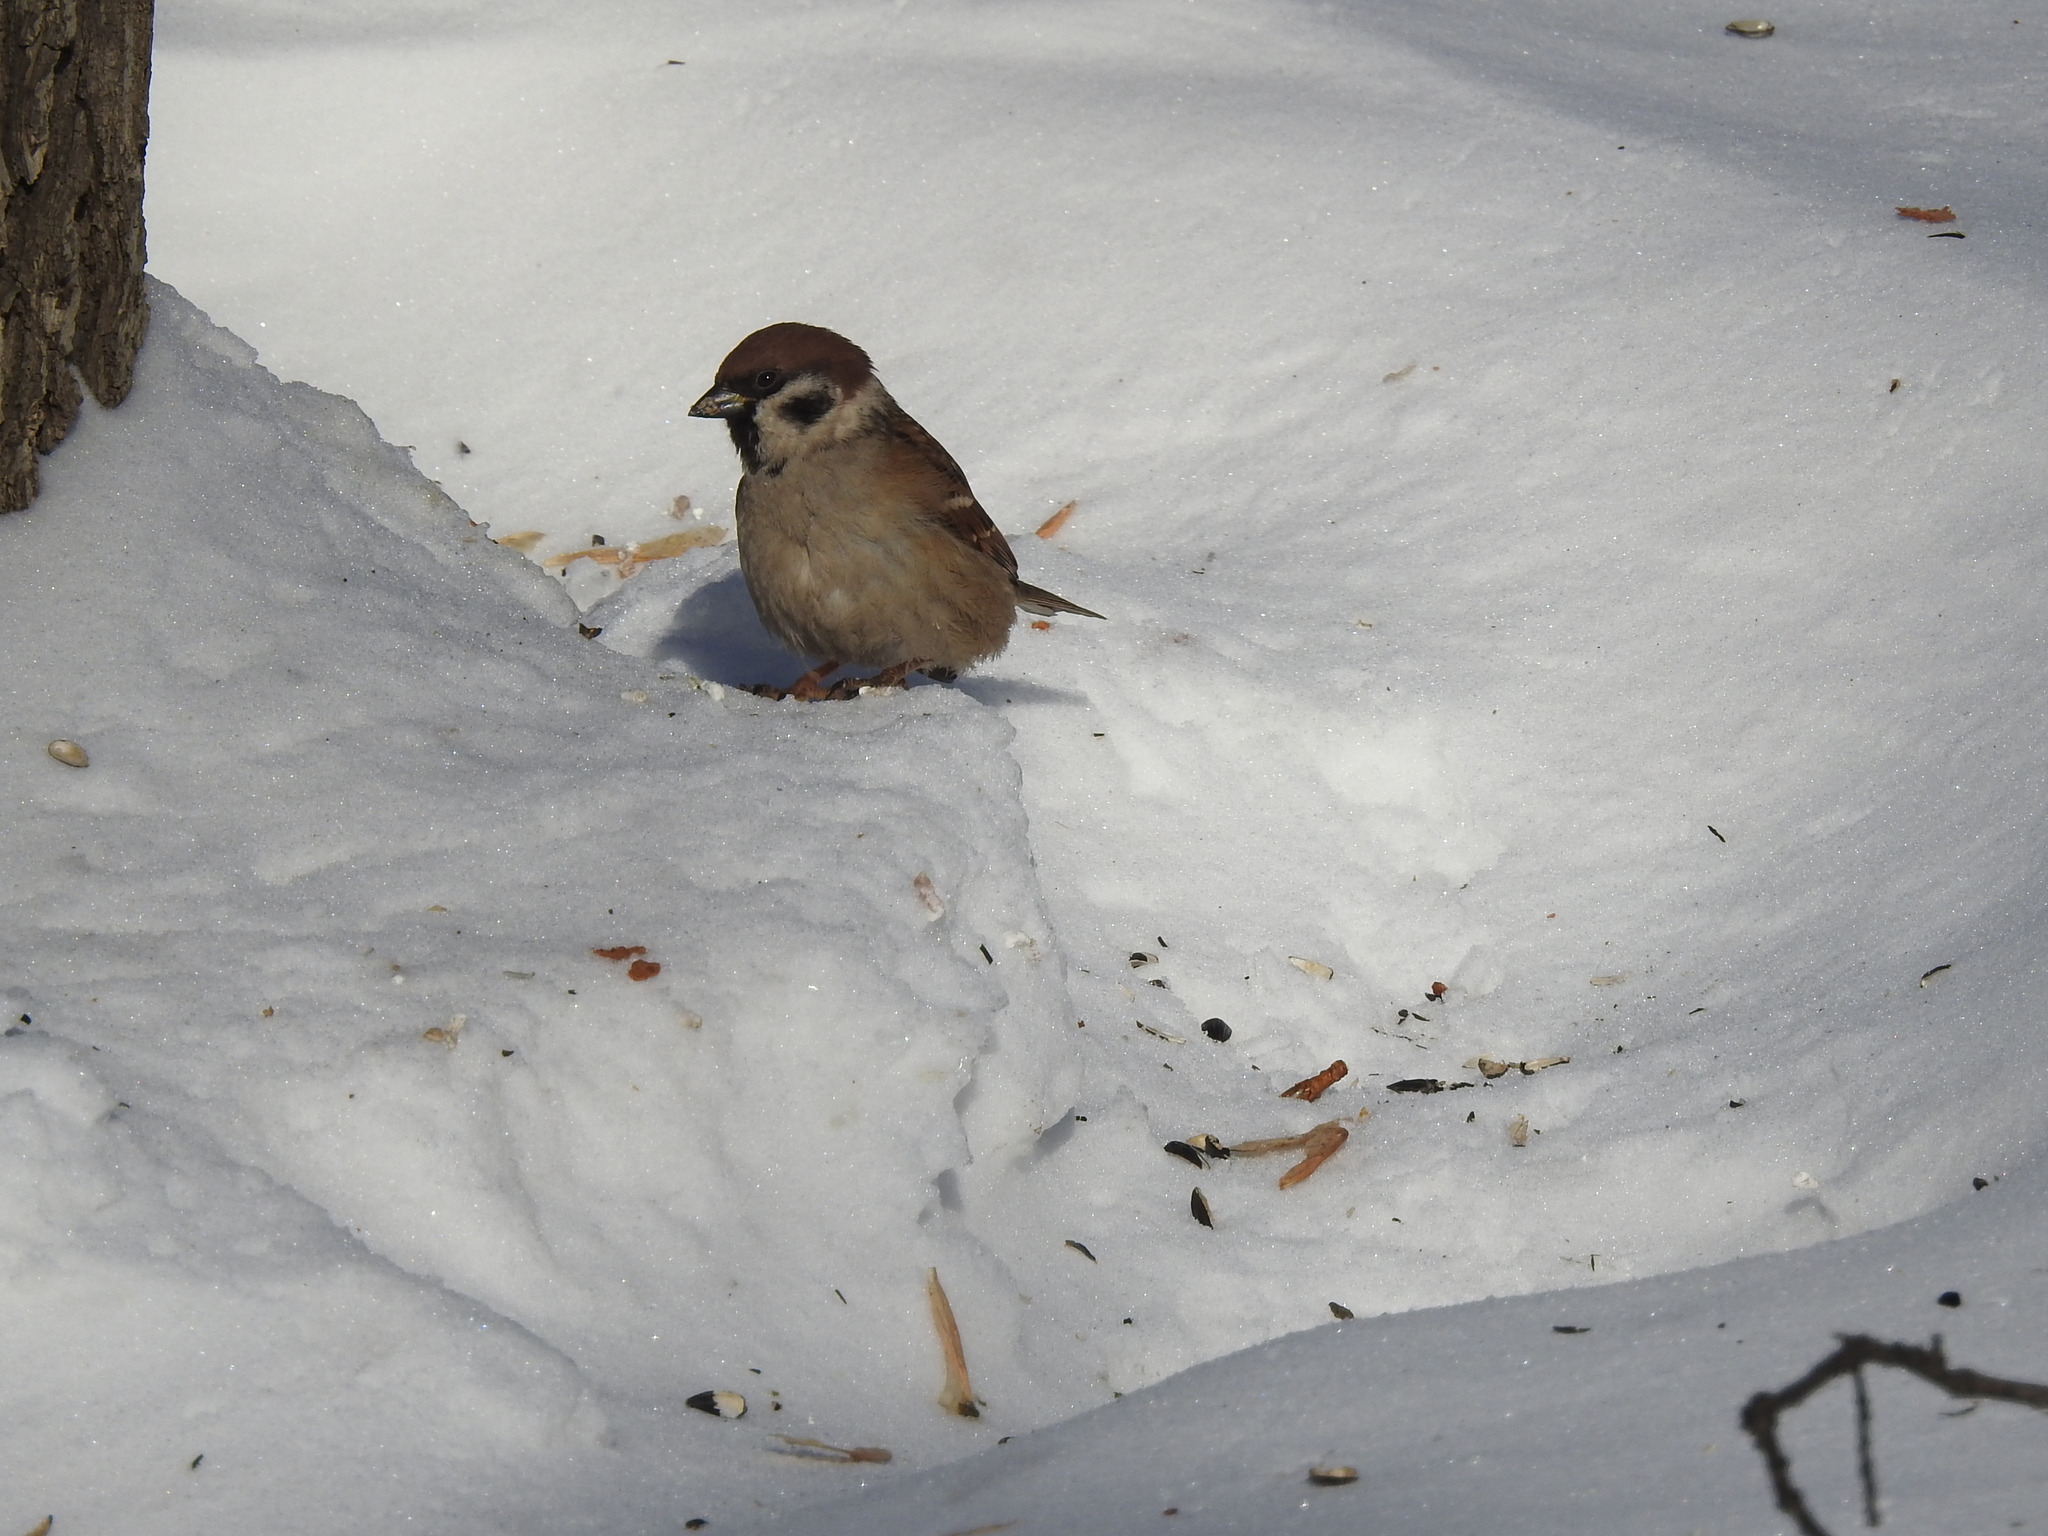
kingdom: Animalia
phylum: Chordata
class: Aves
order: Passeriformes
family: Passeridae
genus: Passer
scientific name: Passer montanus
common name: Eurasian tree sparrow
